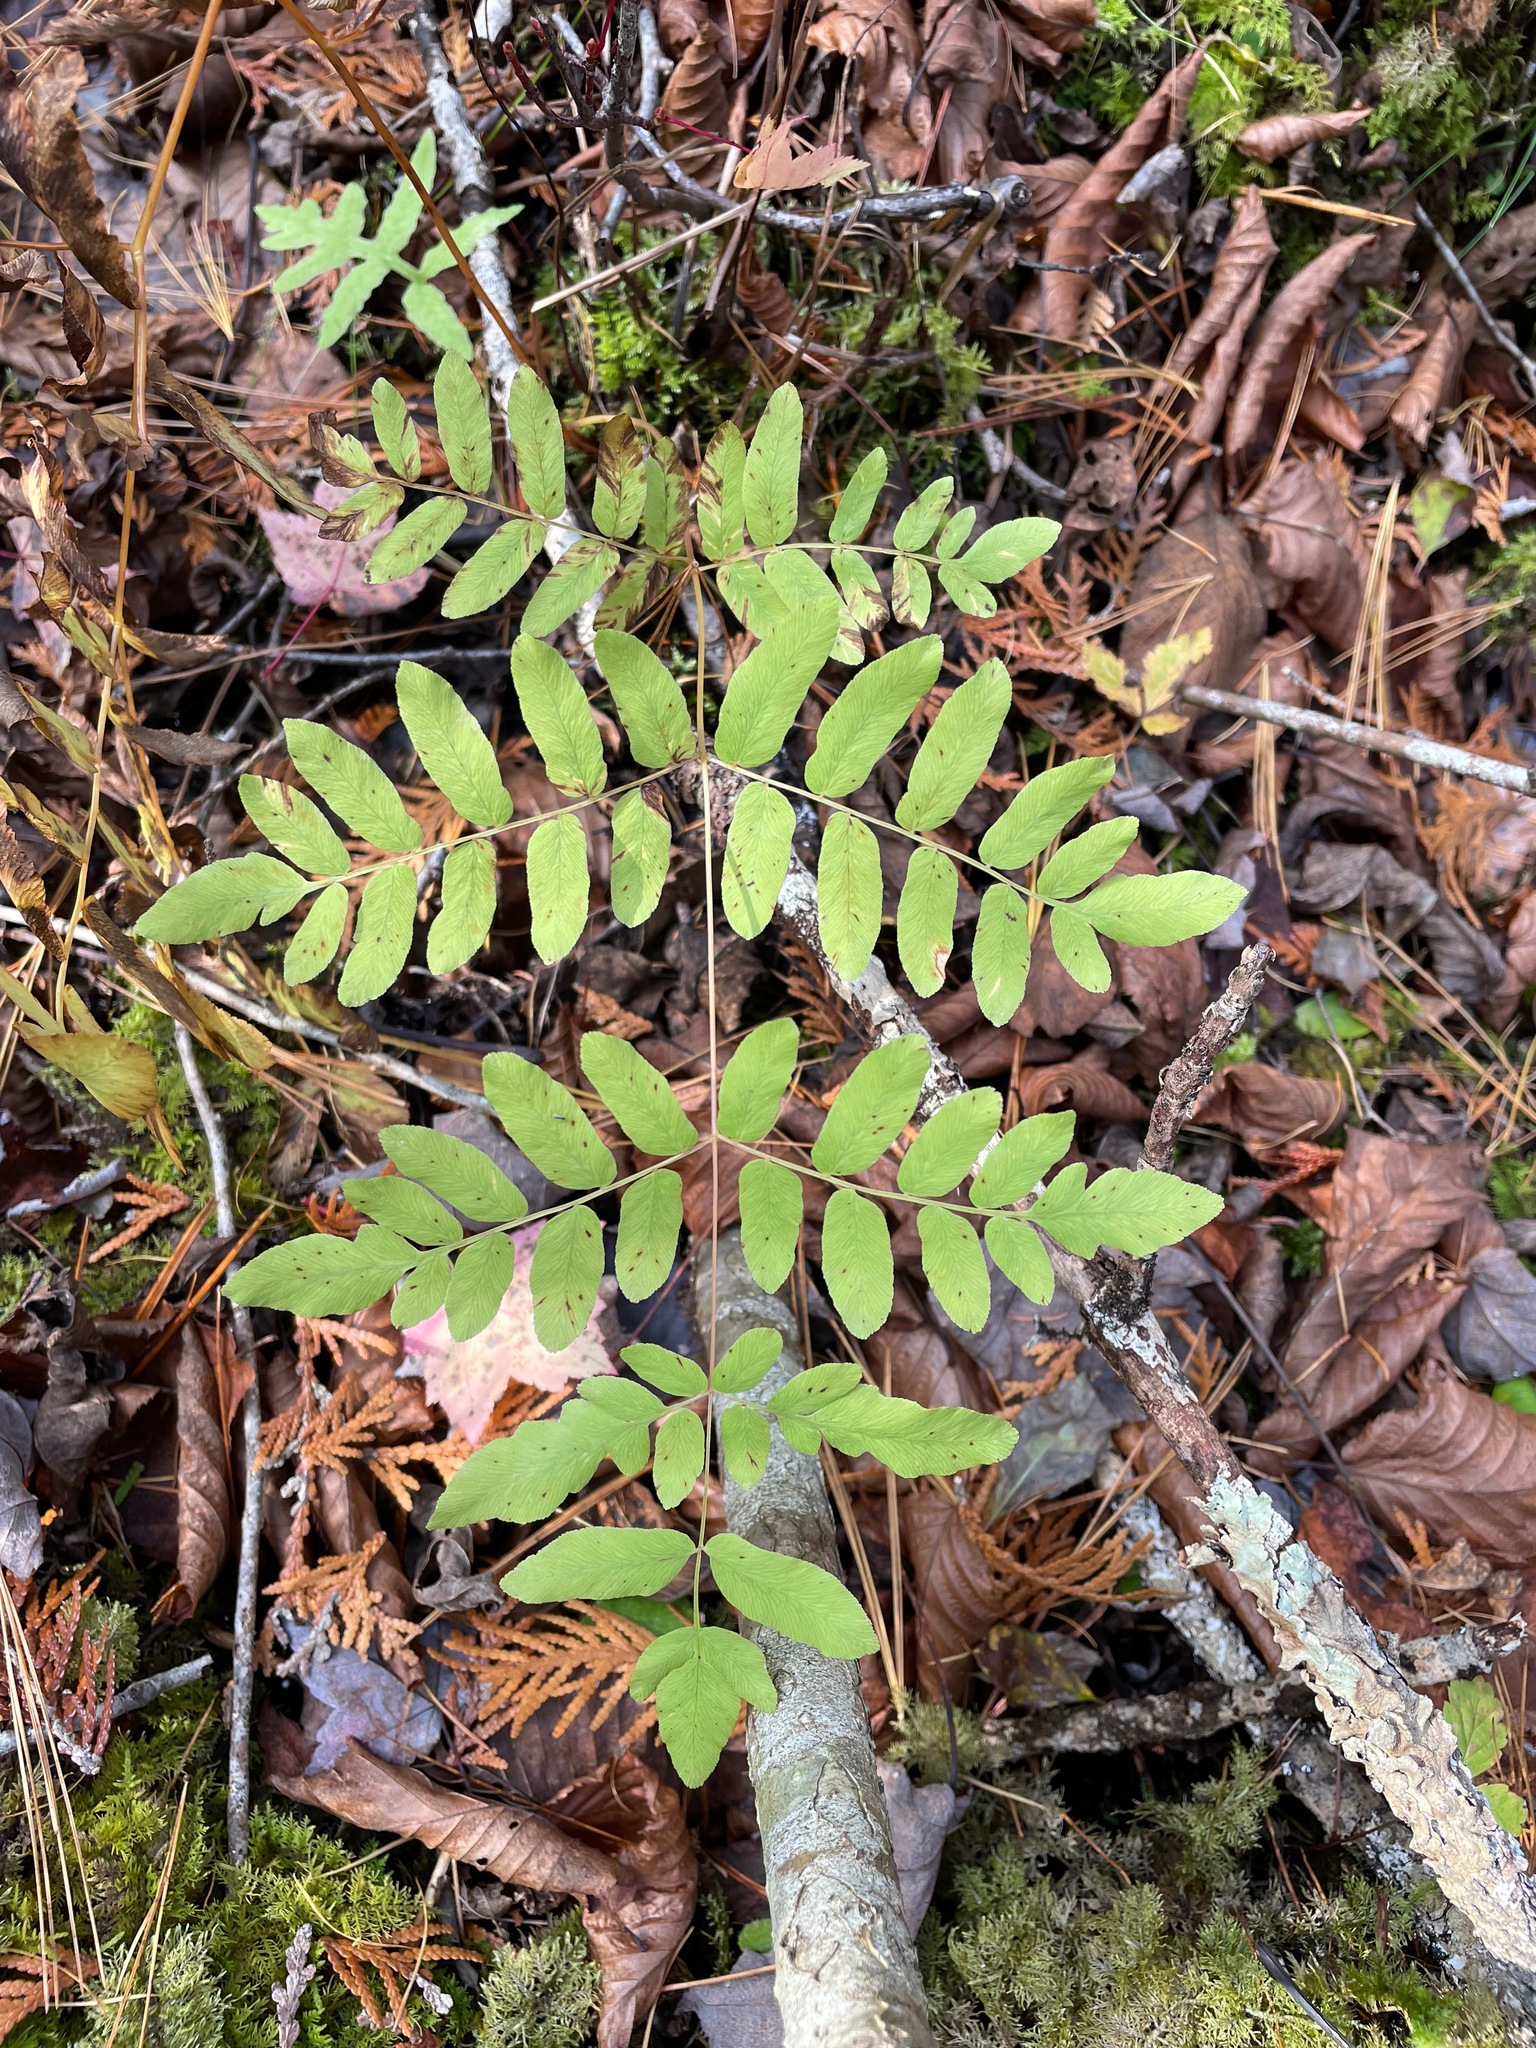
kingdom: Plantae
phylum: Tracheophyta
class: Polypodiopsida
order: Osmundales
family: Osmundaceae
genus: Osmunda
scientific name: Osmunda spectabilis
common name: American royal fern
